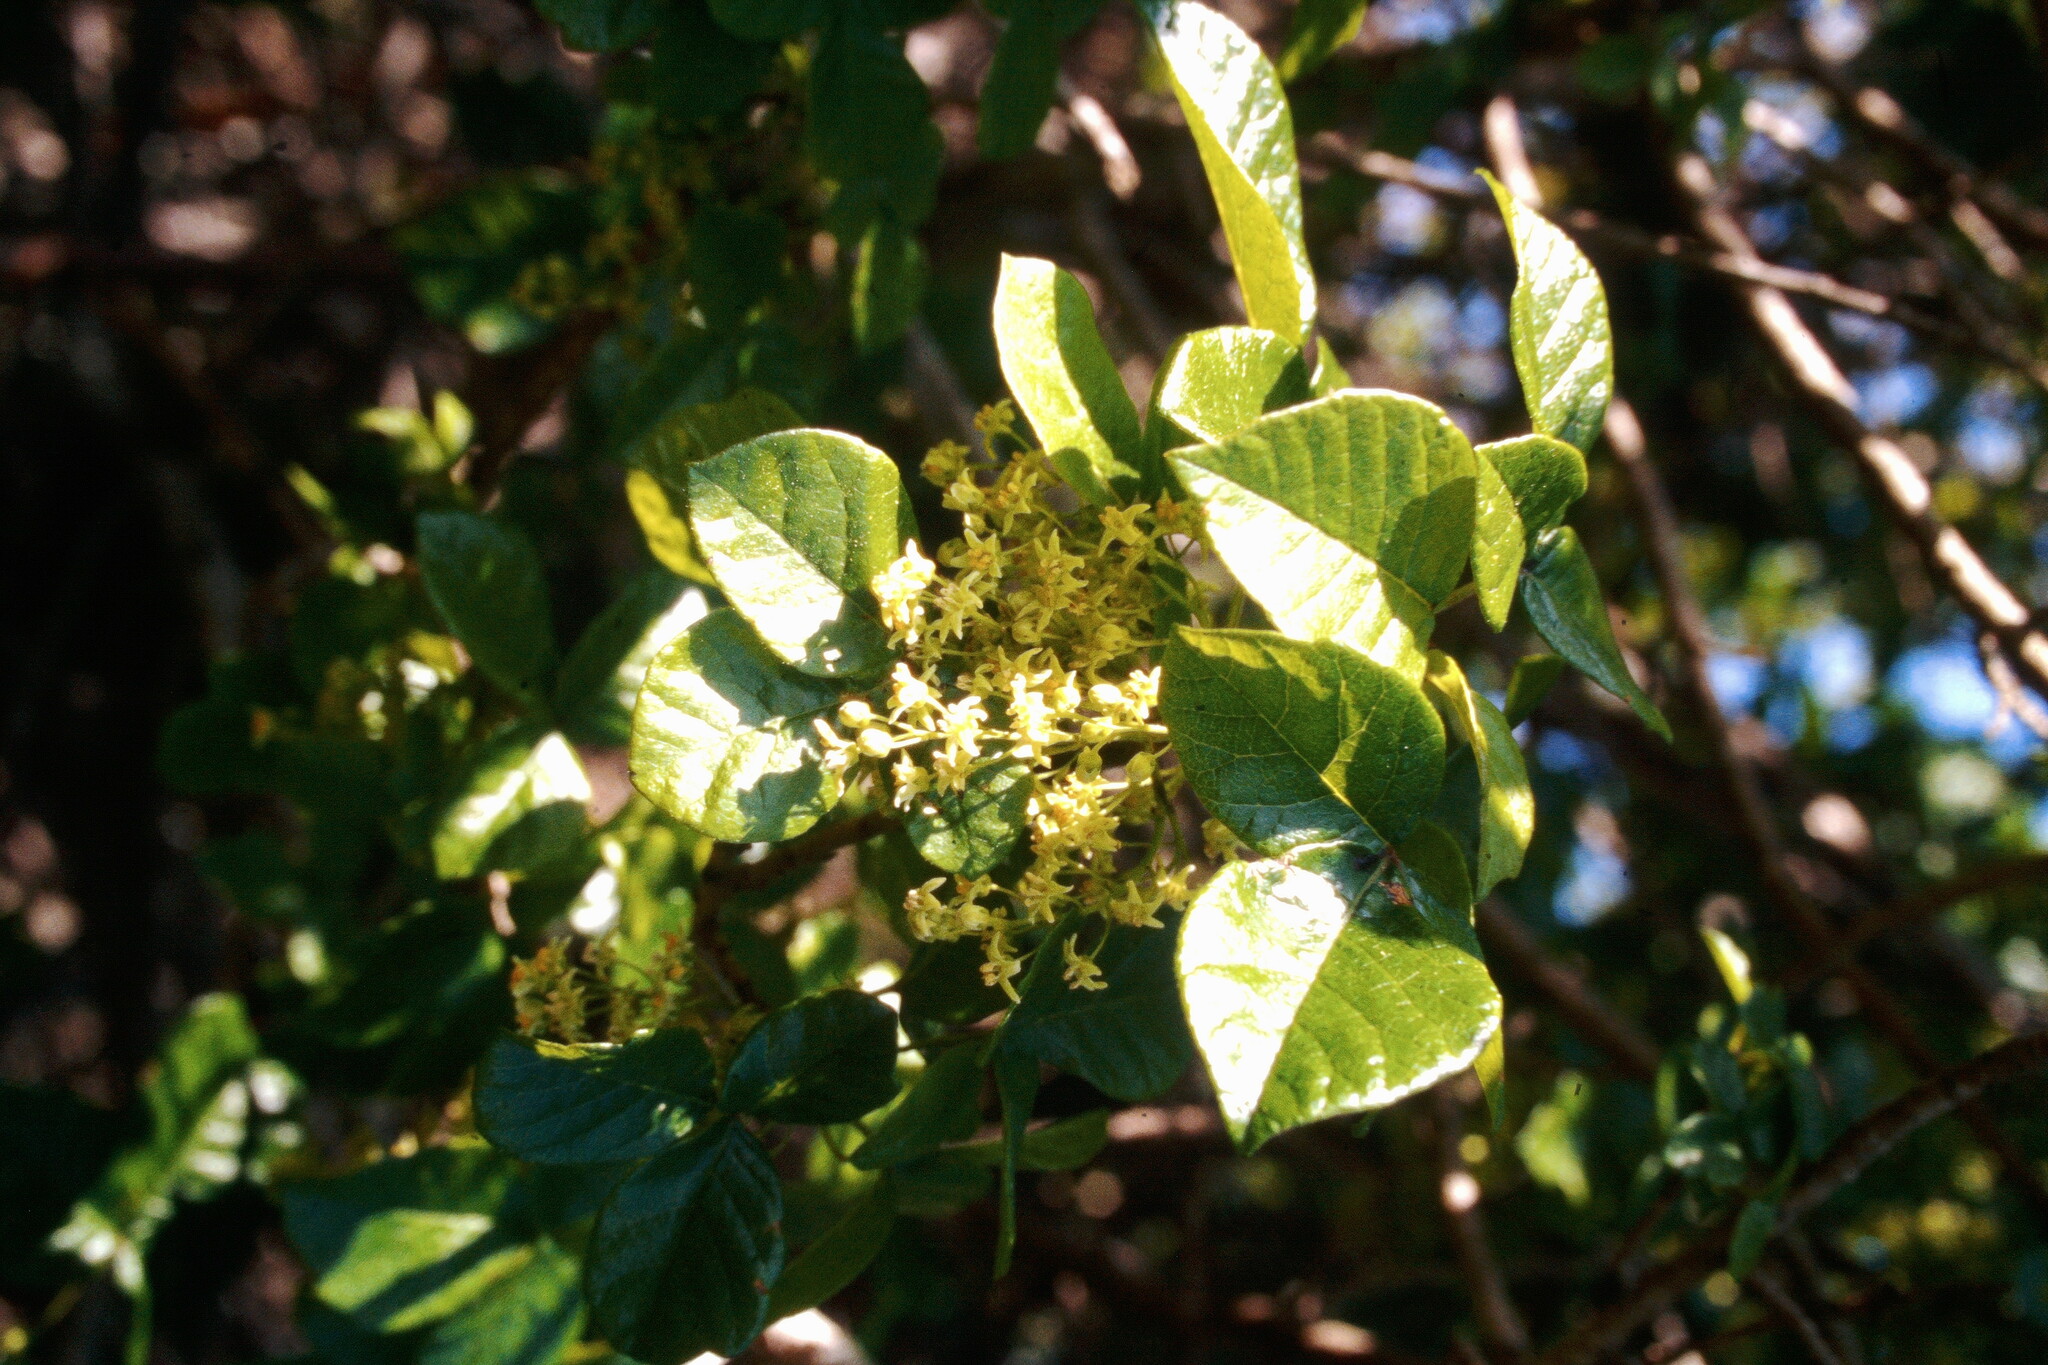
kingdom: Plantae
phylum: Tracheophyta
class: Magnoliopsida
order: Sapindales
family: Anacardiaceae
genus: Toxicodendron
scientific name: Toxicodendron diversilobum
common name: Pacific poison-oak
